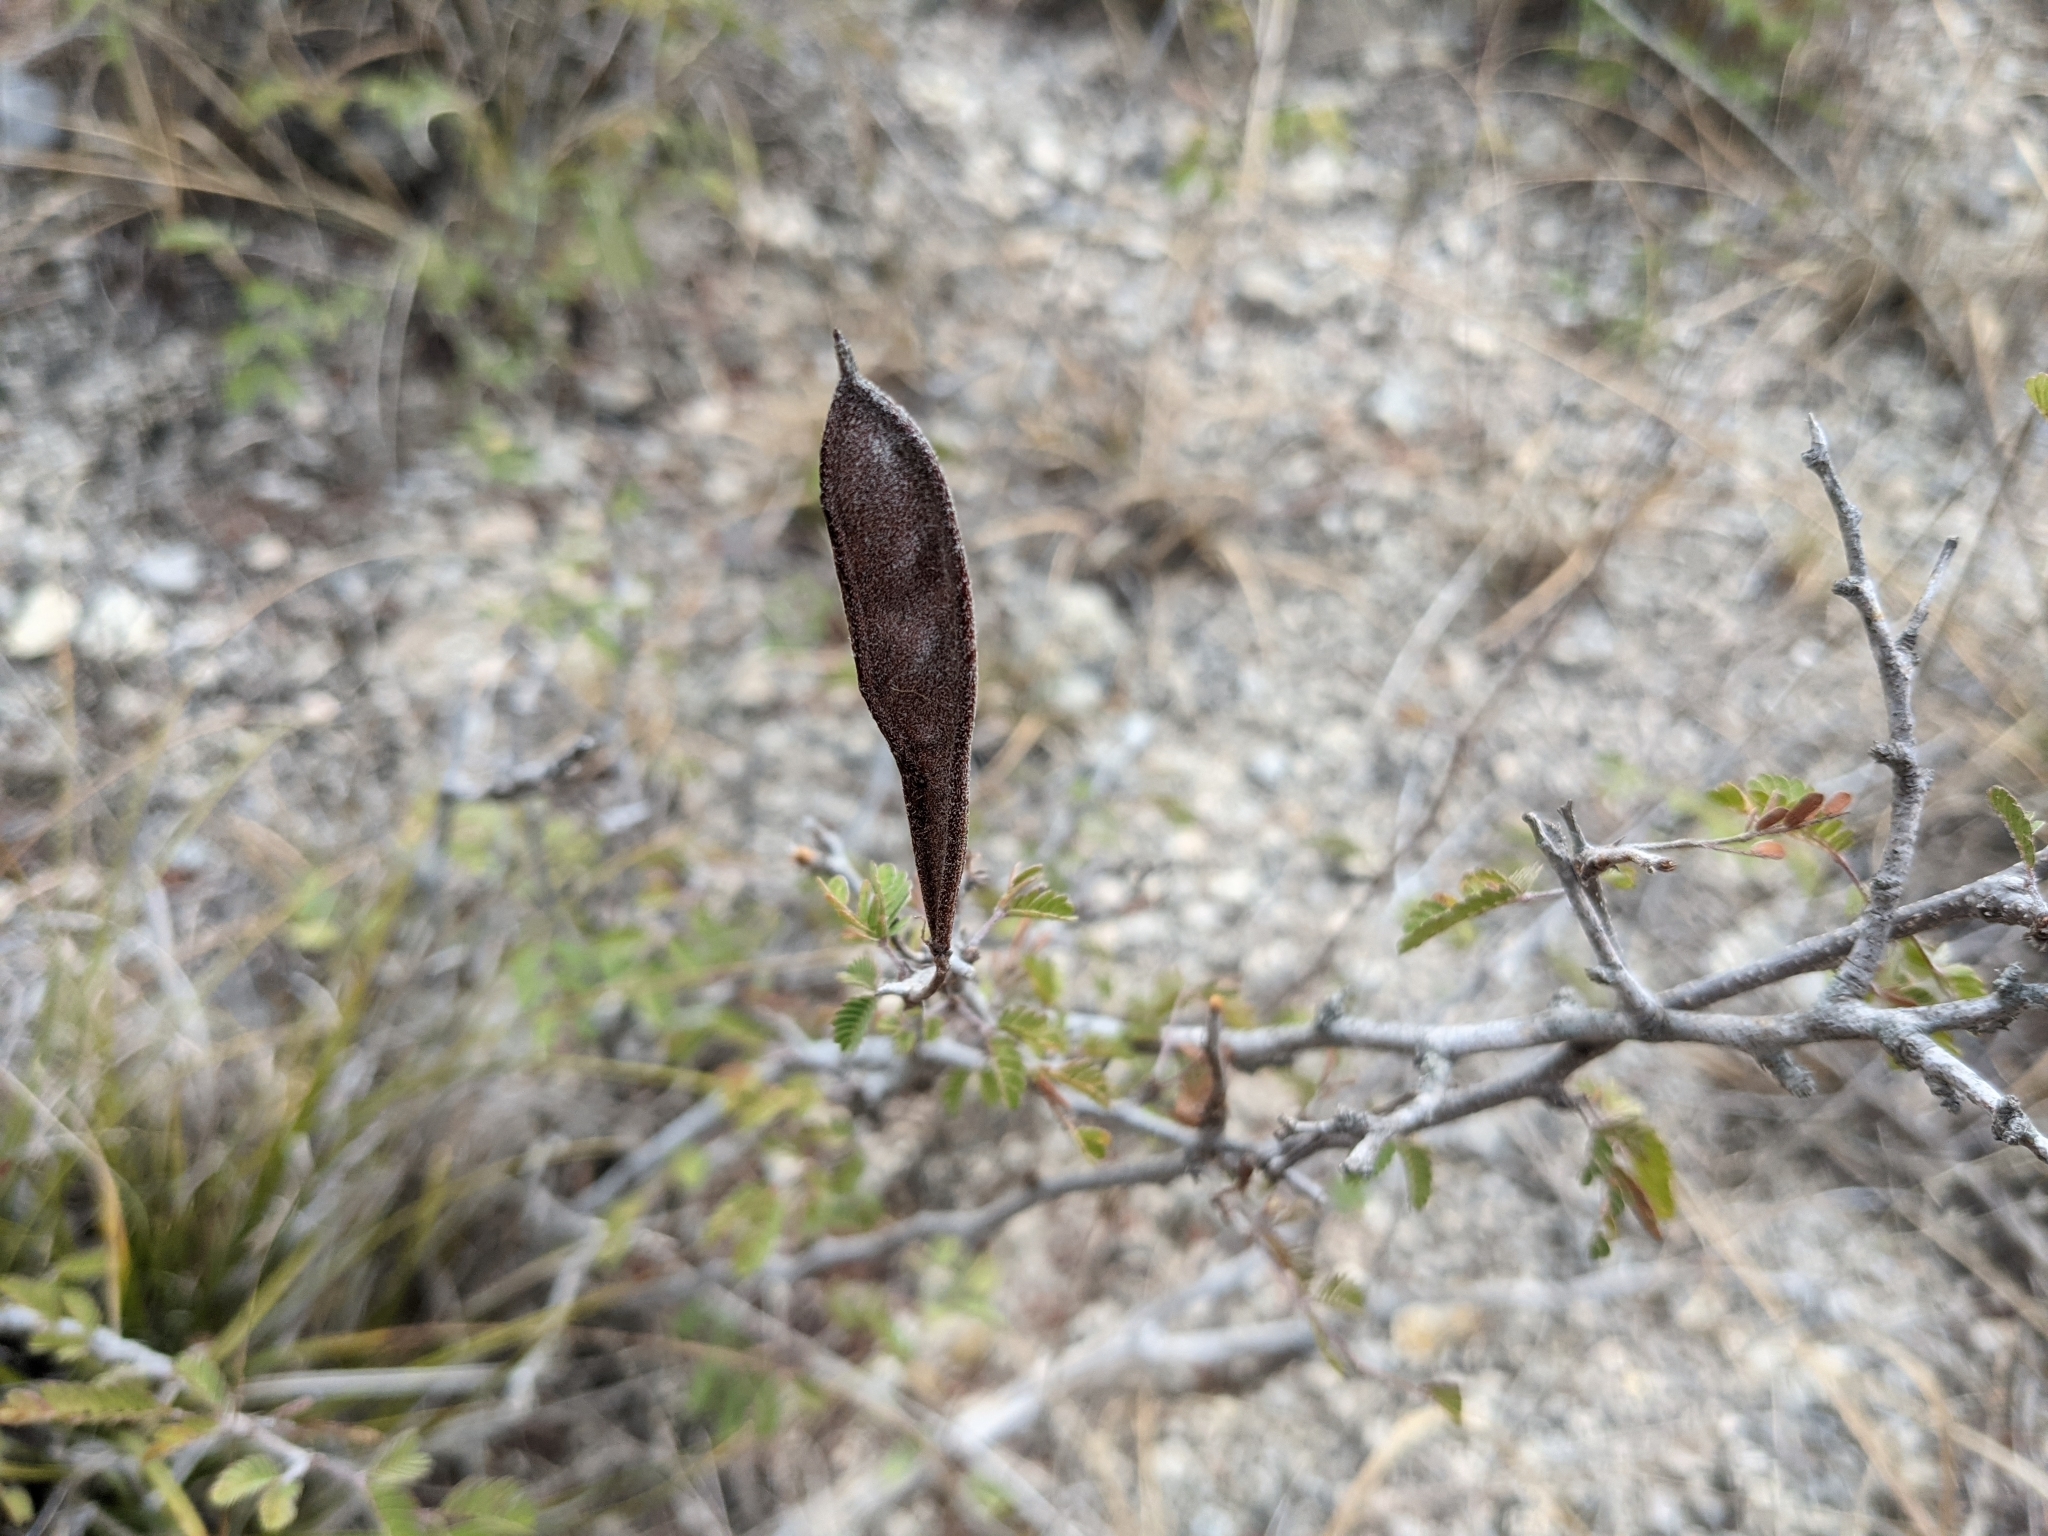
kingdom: Plantae
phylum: Tracheophyta
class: Magnoliopsida
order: Fabales
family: Fabaceae
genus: Calliandra
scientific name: Calliandra eriophylla
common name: Fairy-duster
